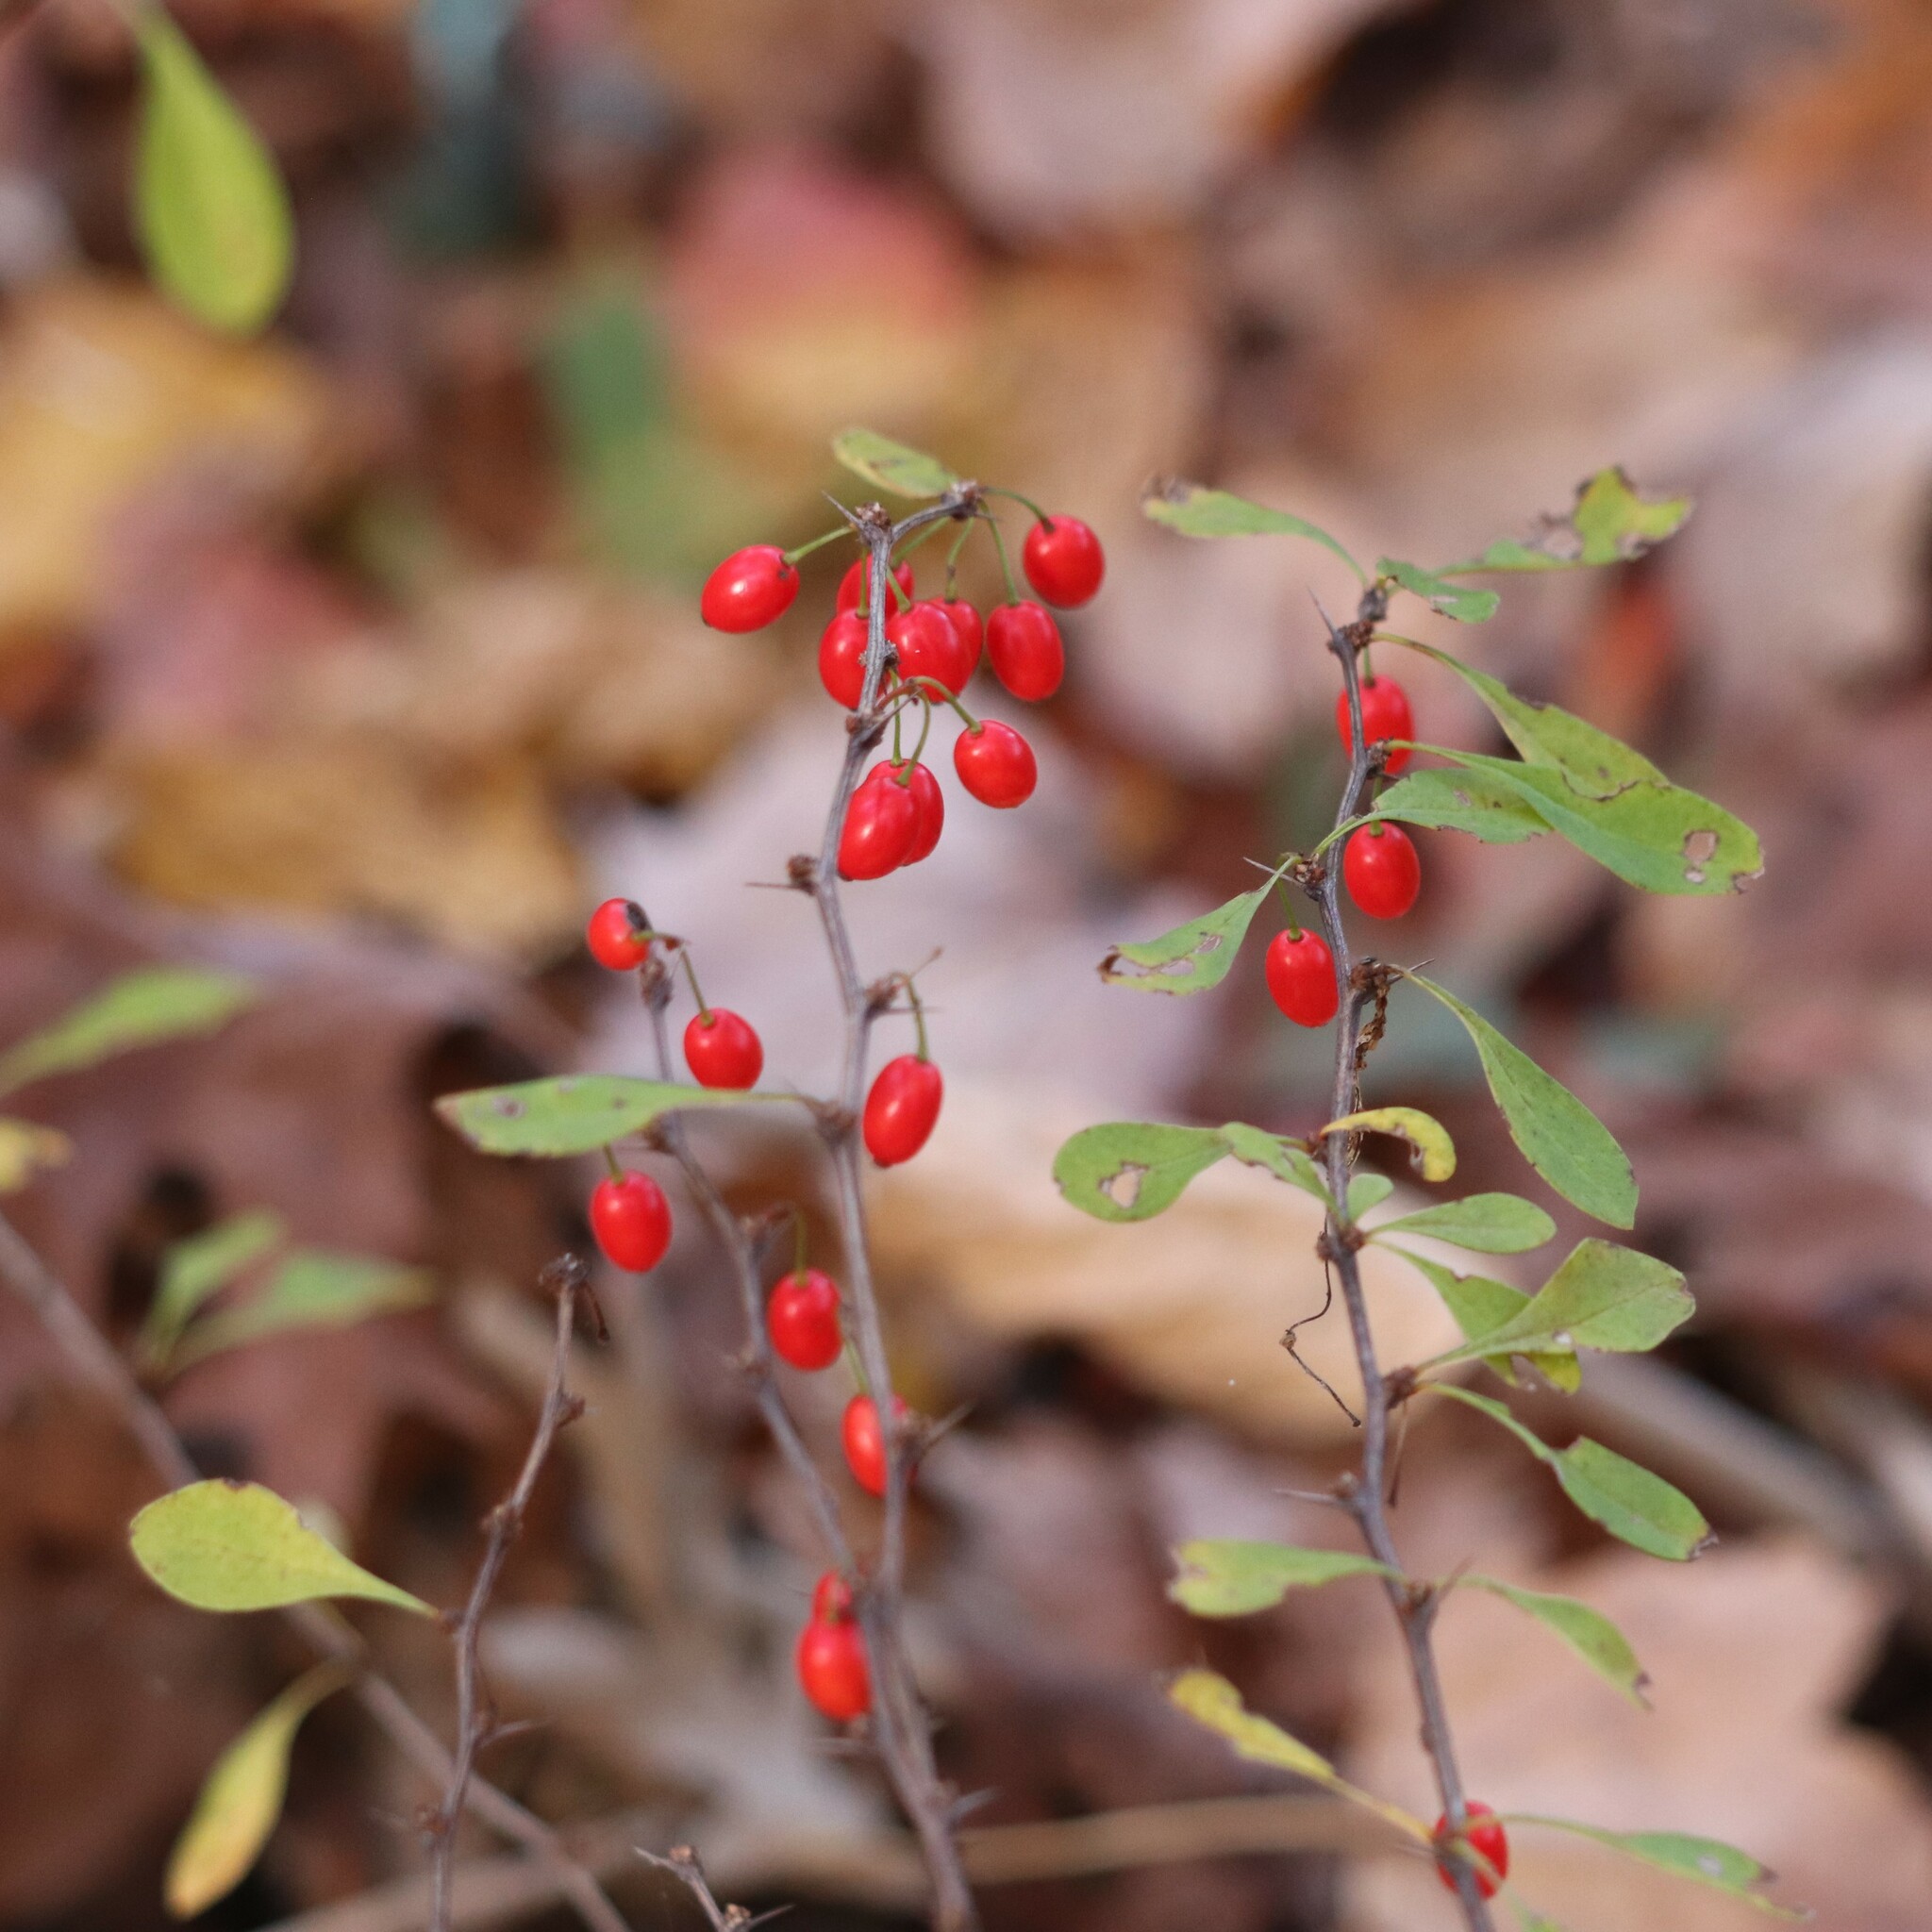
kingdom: Plantae
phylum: Tracheophyta
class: Magnoliopsida
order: Ranunculales
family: Berberidaceae
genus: Berberis
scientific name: Berberis thunbergii
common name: Japanese barberry
